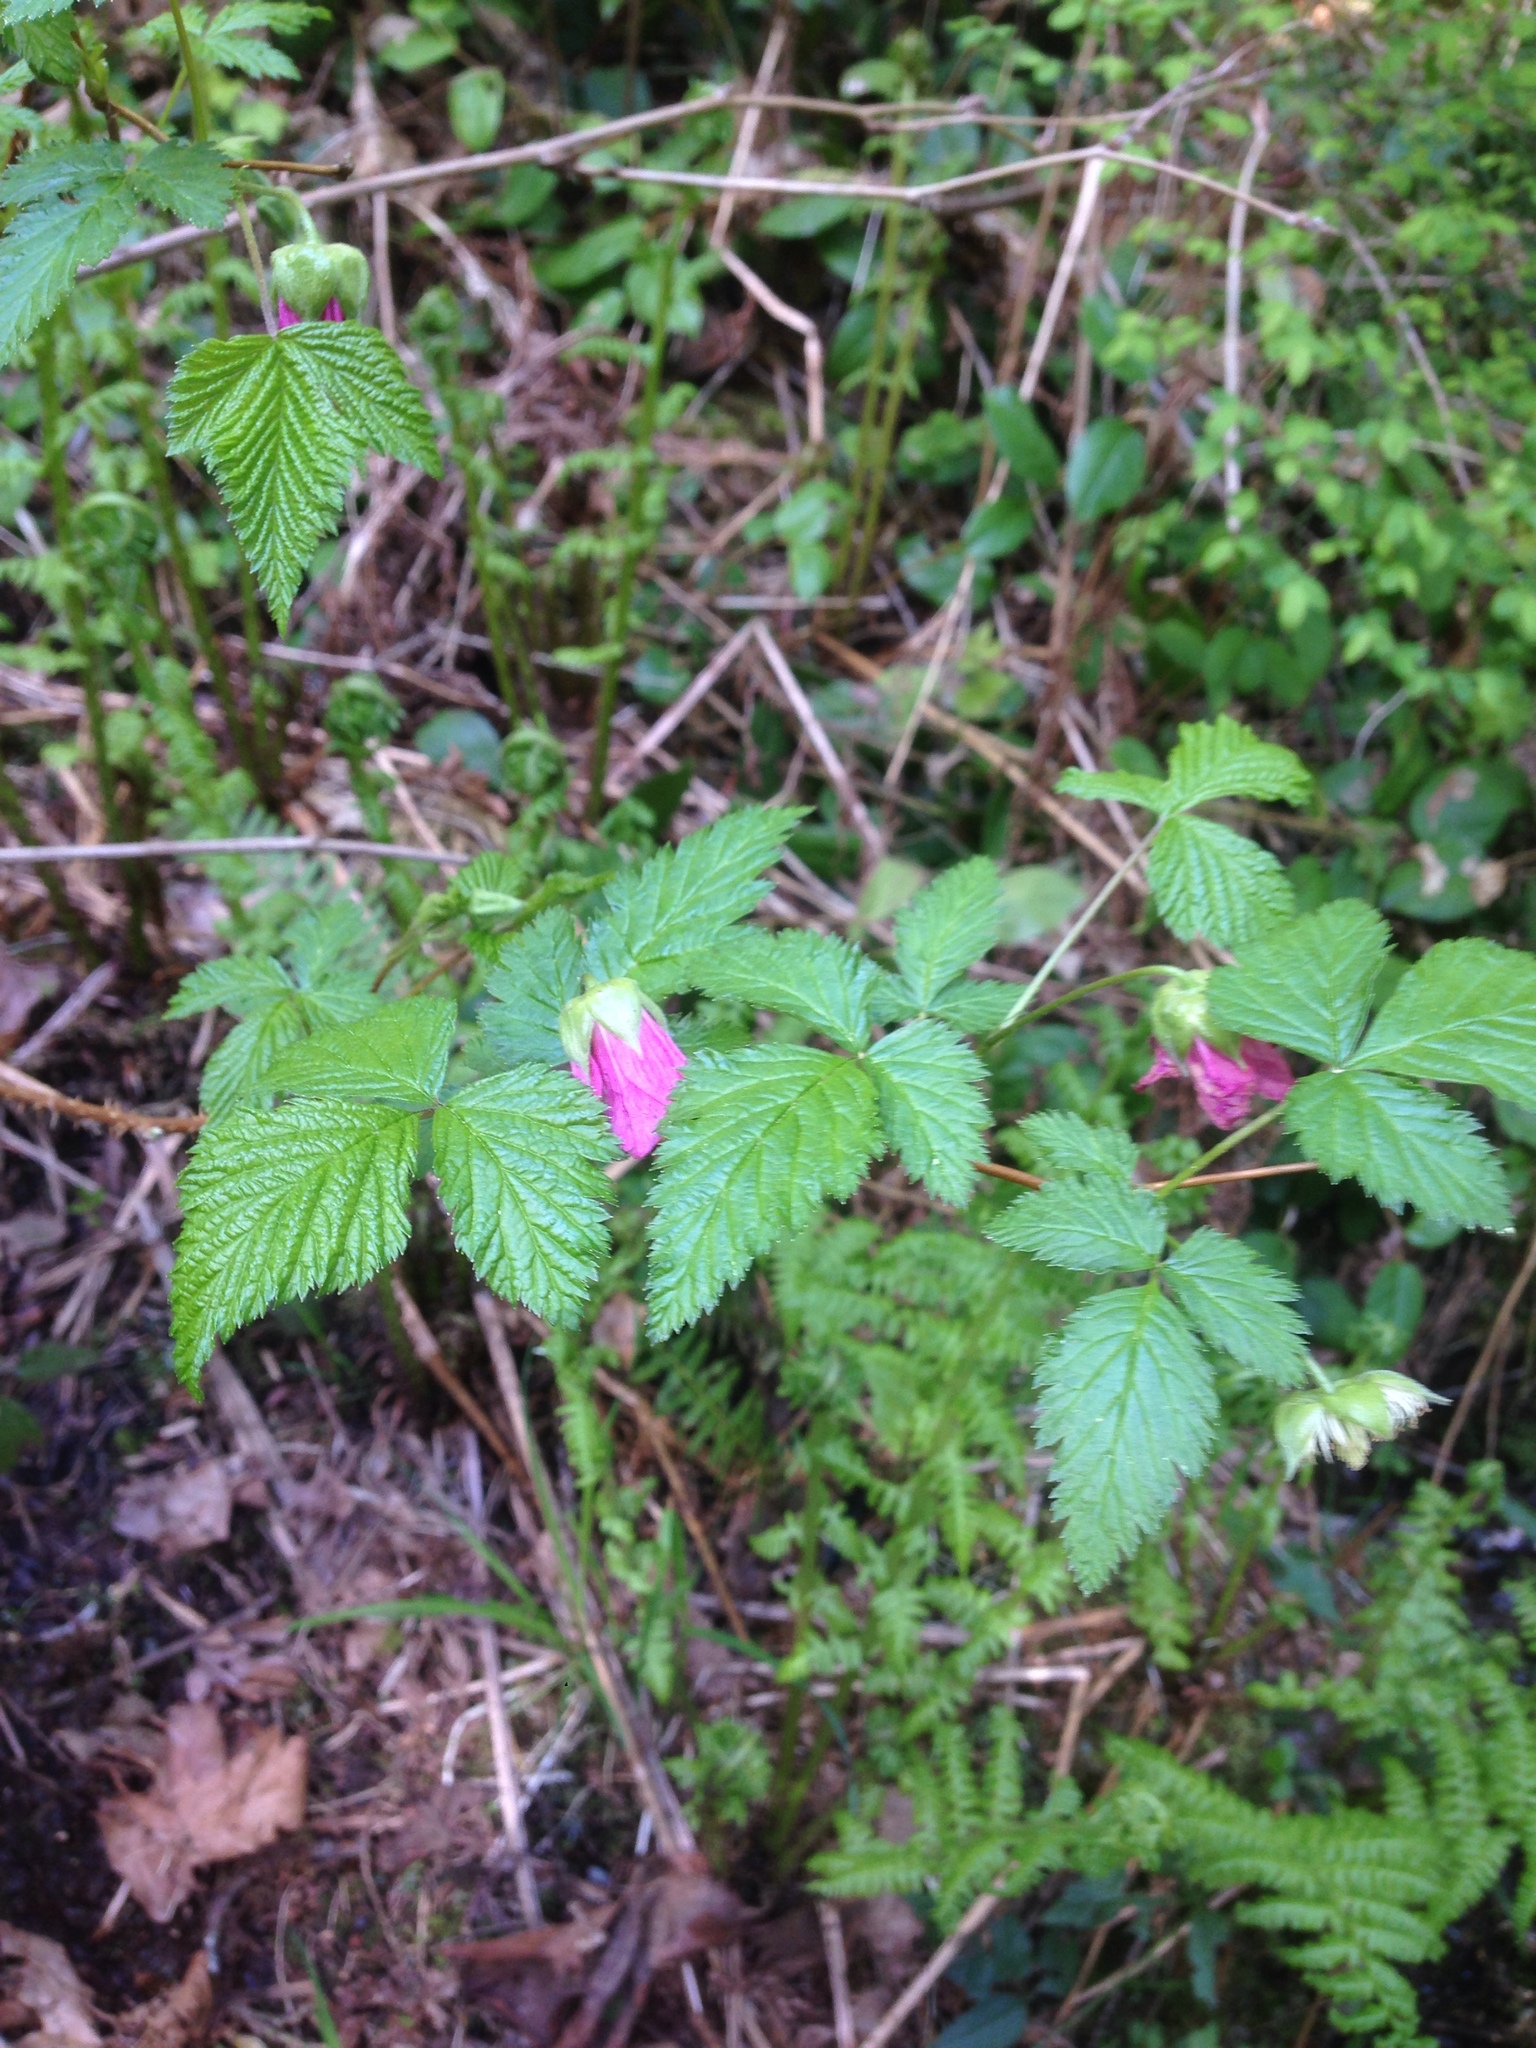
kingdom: Plantae
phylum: Tracheophyta
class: Magnoliopsida
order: Rosales
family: Rosaceae
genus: Rubus
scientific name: Rubus spectabilis
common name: Salmonberry
